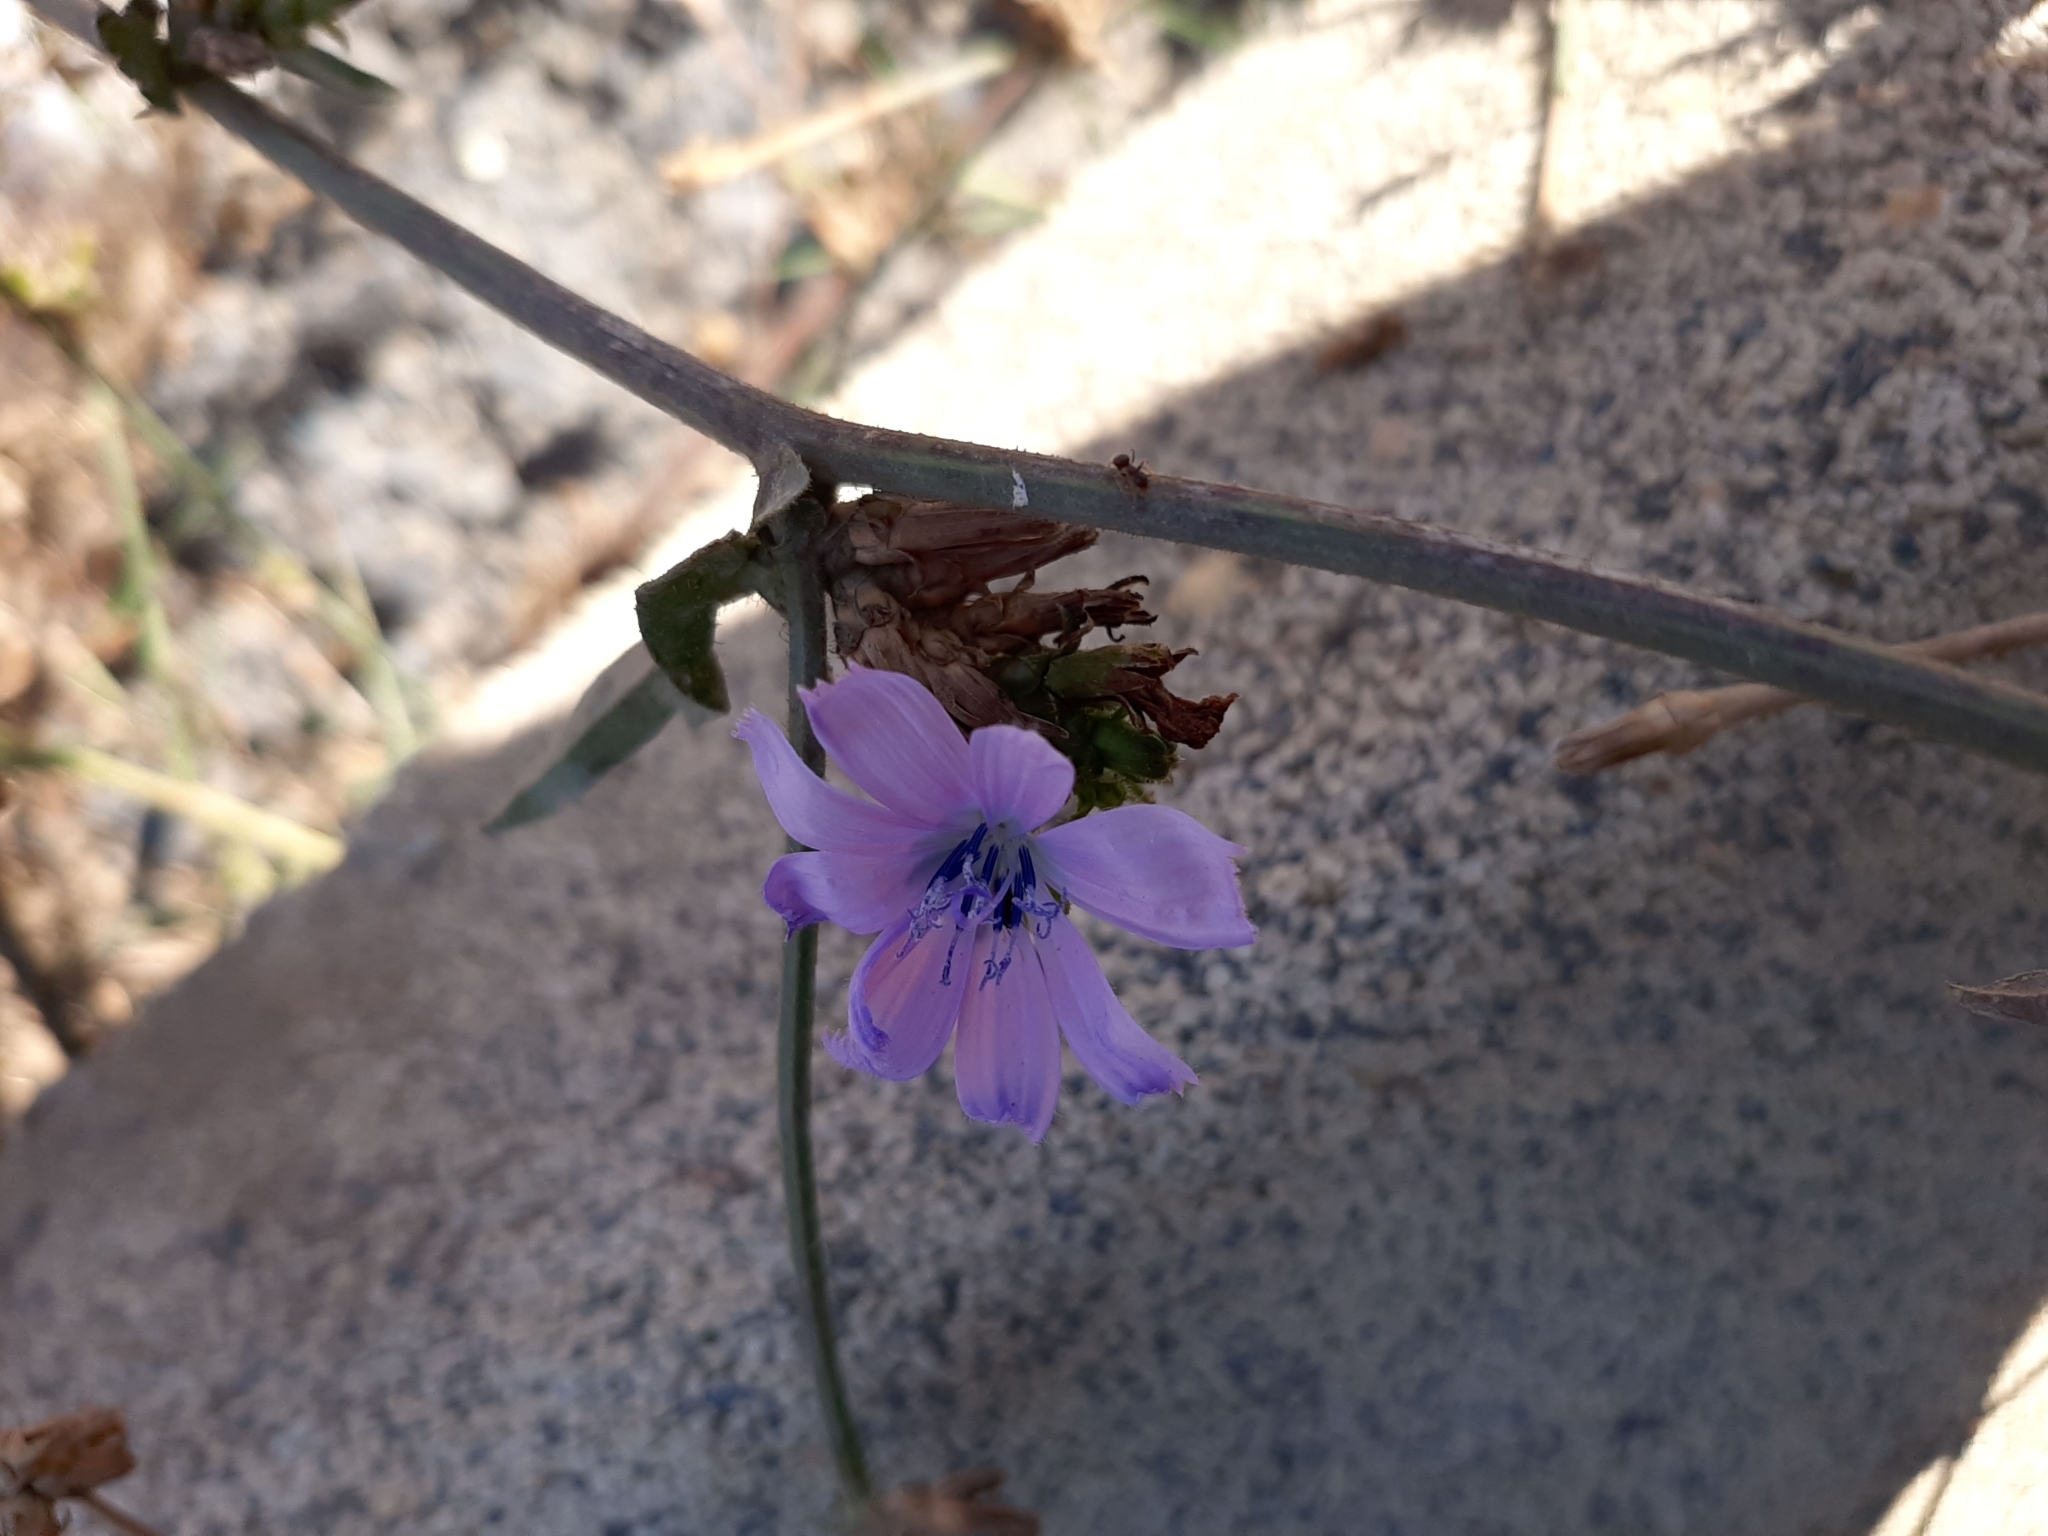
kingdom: Plantae
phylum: Tracheophyta
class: Magnoliopsida
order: Asterales
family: Asteraceae
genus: Cichorium
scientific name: Cichorium intybus
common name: Chicory
